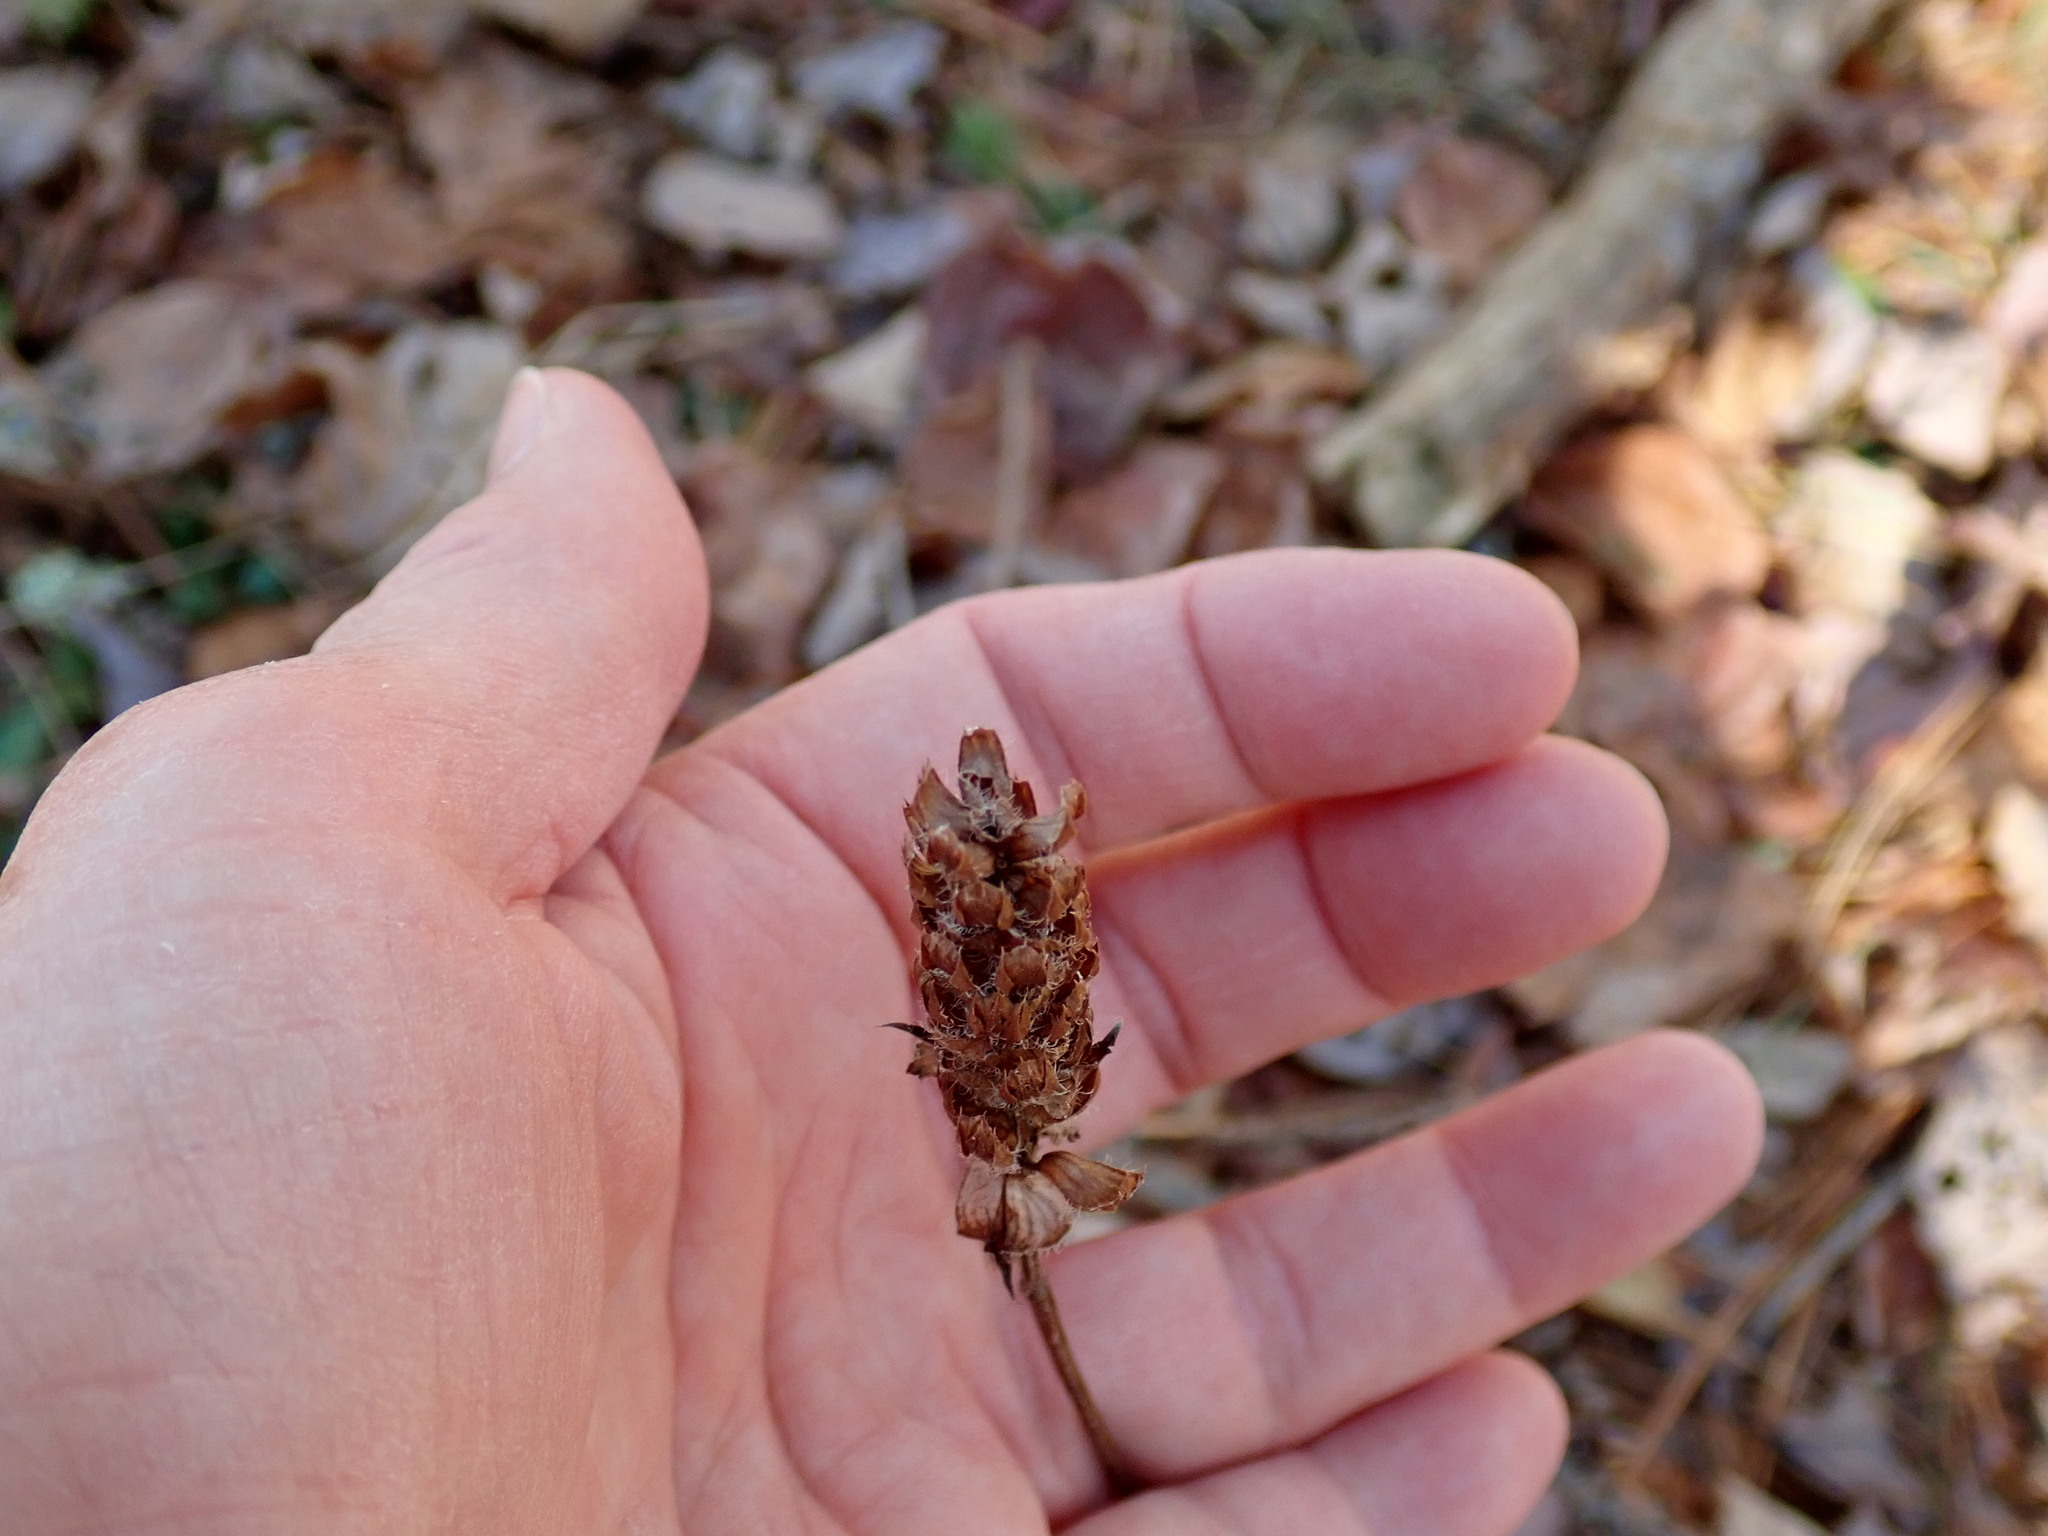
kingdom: Plantae
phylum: Tracheophyta
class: Magnoliopsida
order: Lamiales
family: Lamiaceae
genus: Prunella
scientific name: Prunella vulgaris
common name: Heal-all
